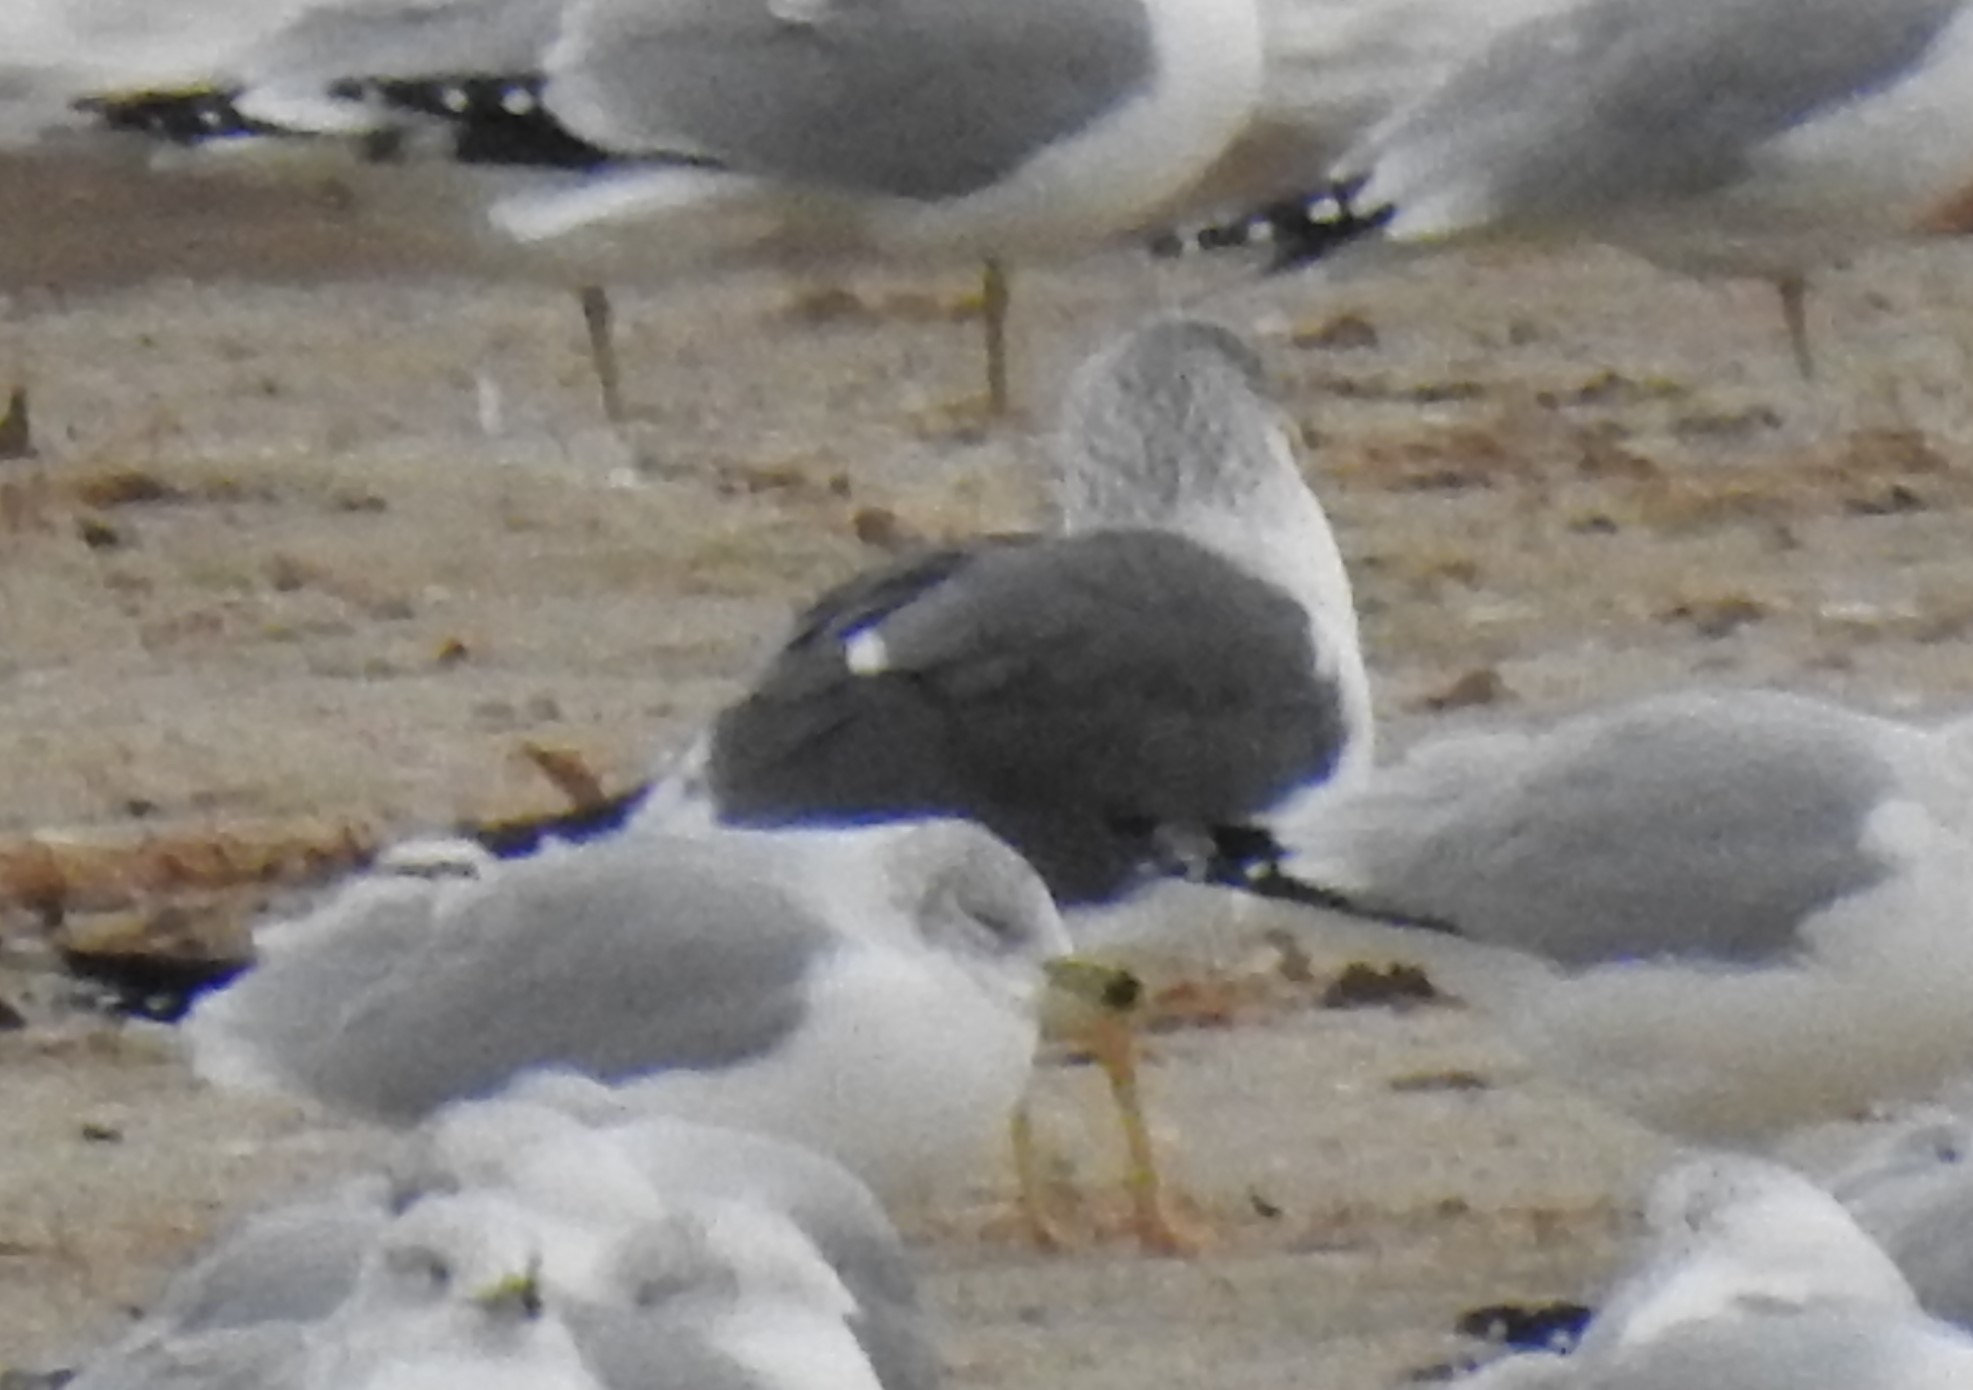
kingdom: Animalia
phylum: Chordata
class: Aves
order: Charadriiformes
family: Laridae
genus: Larus
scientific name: Larus fuscus
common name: Lesser black-backed gull
